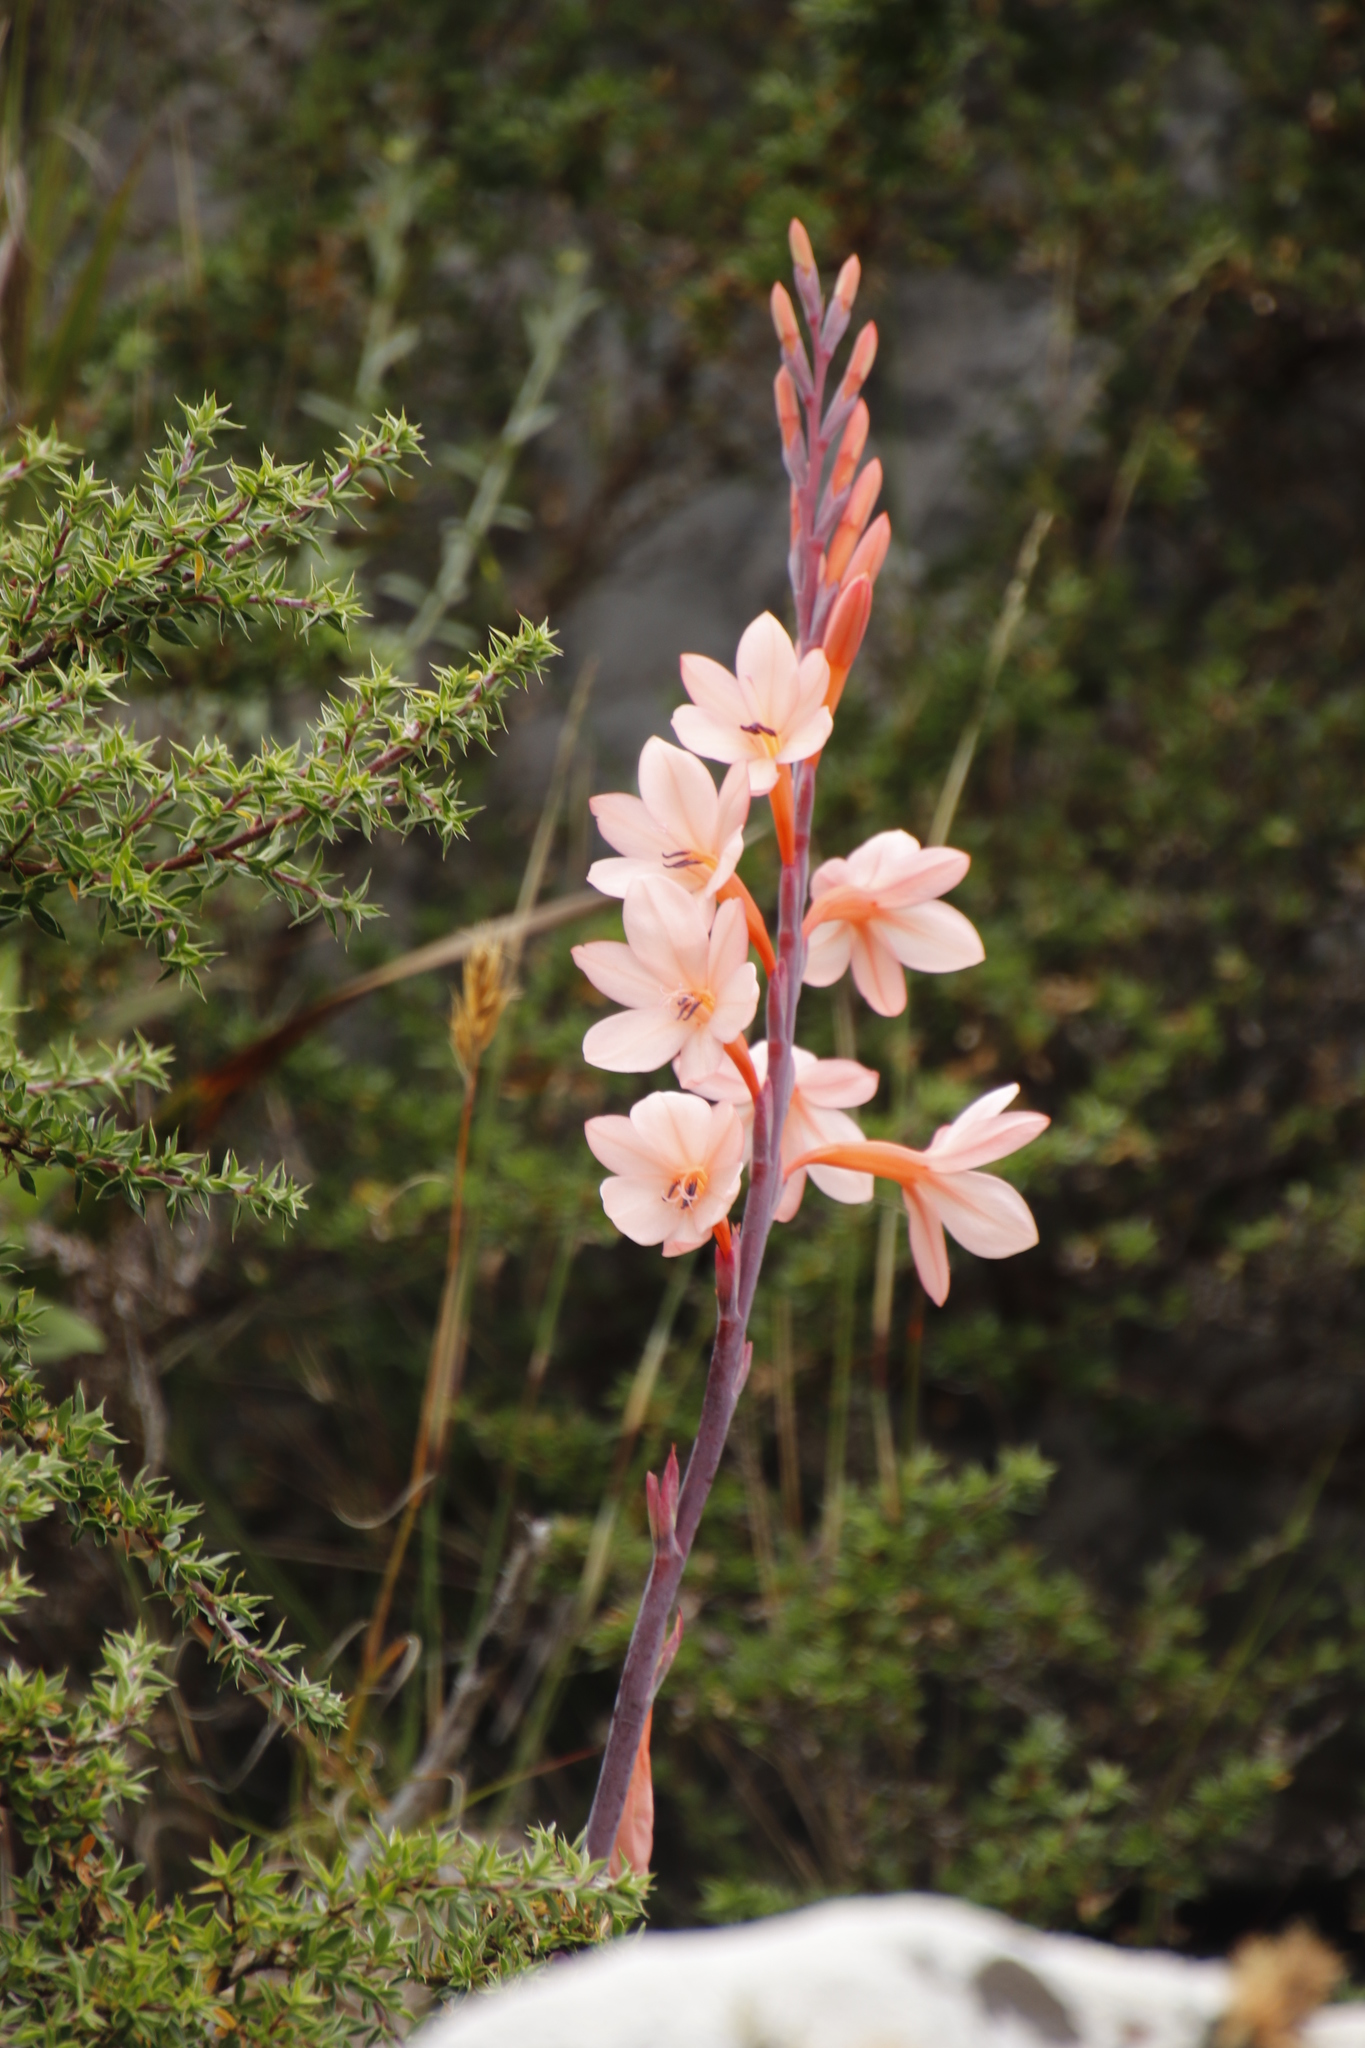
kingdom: Plantae
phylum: Tracheophyta
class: Liliopsida
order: Asparagales
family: Iridaceae
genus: Watsonia
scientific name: Watsonia tabularis
